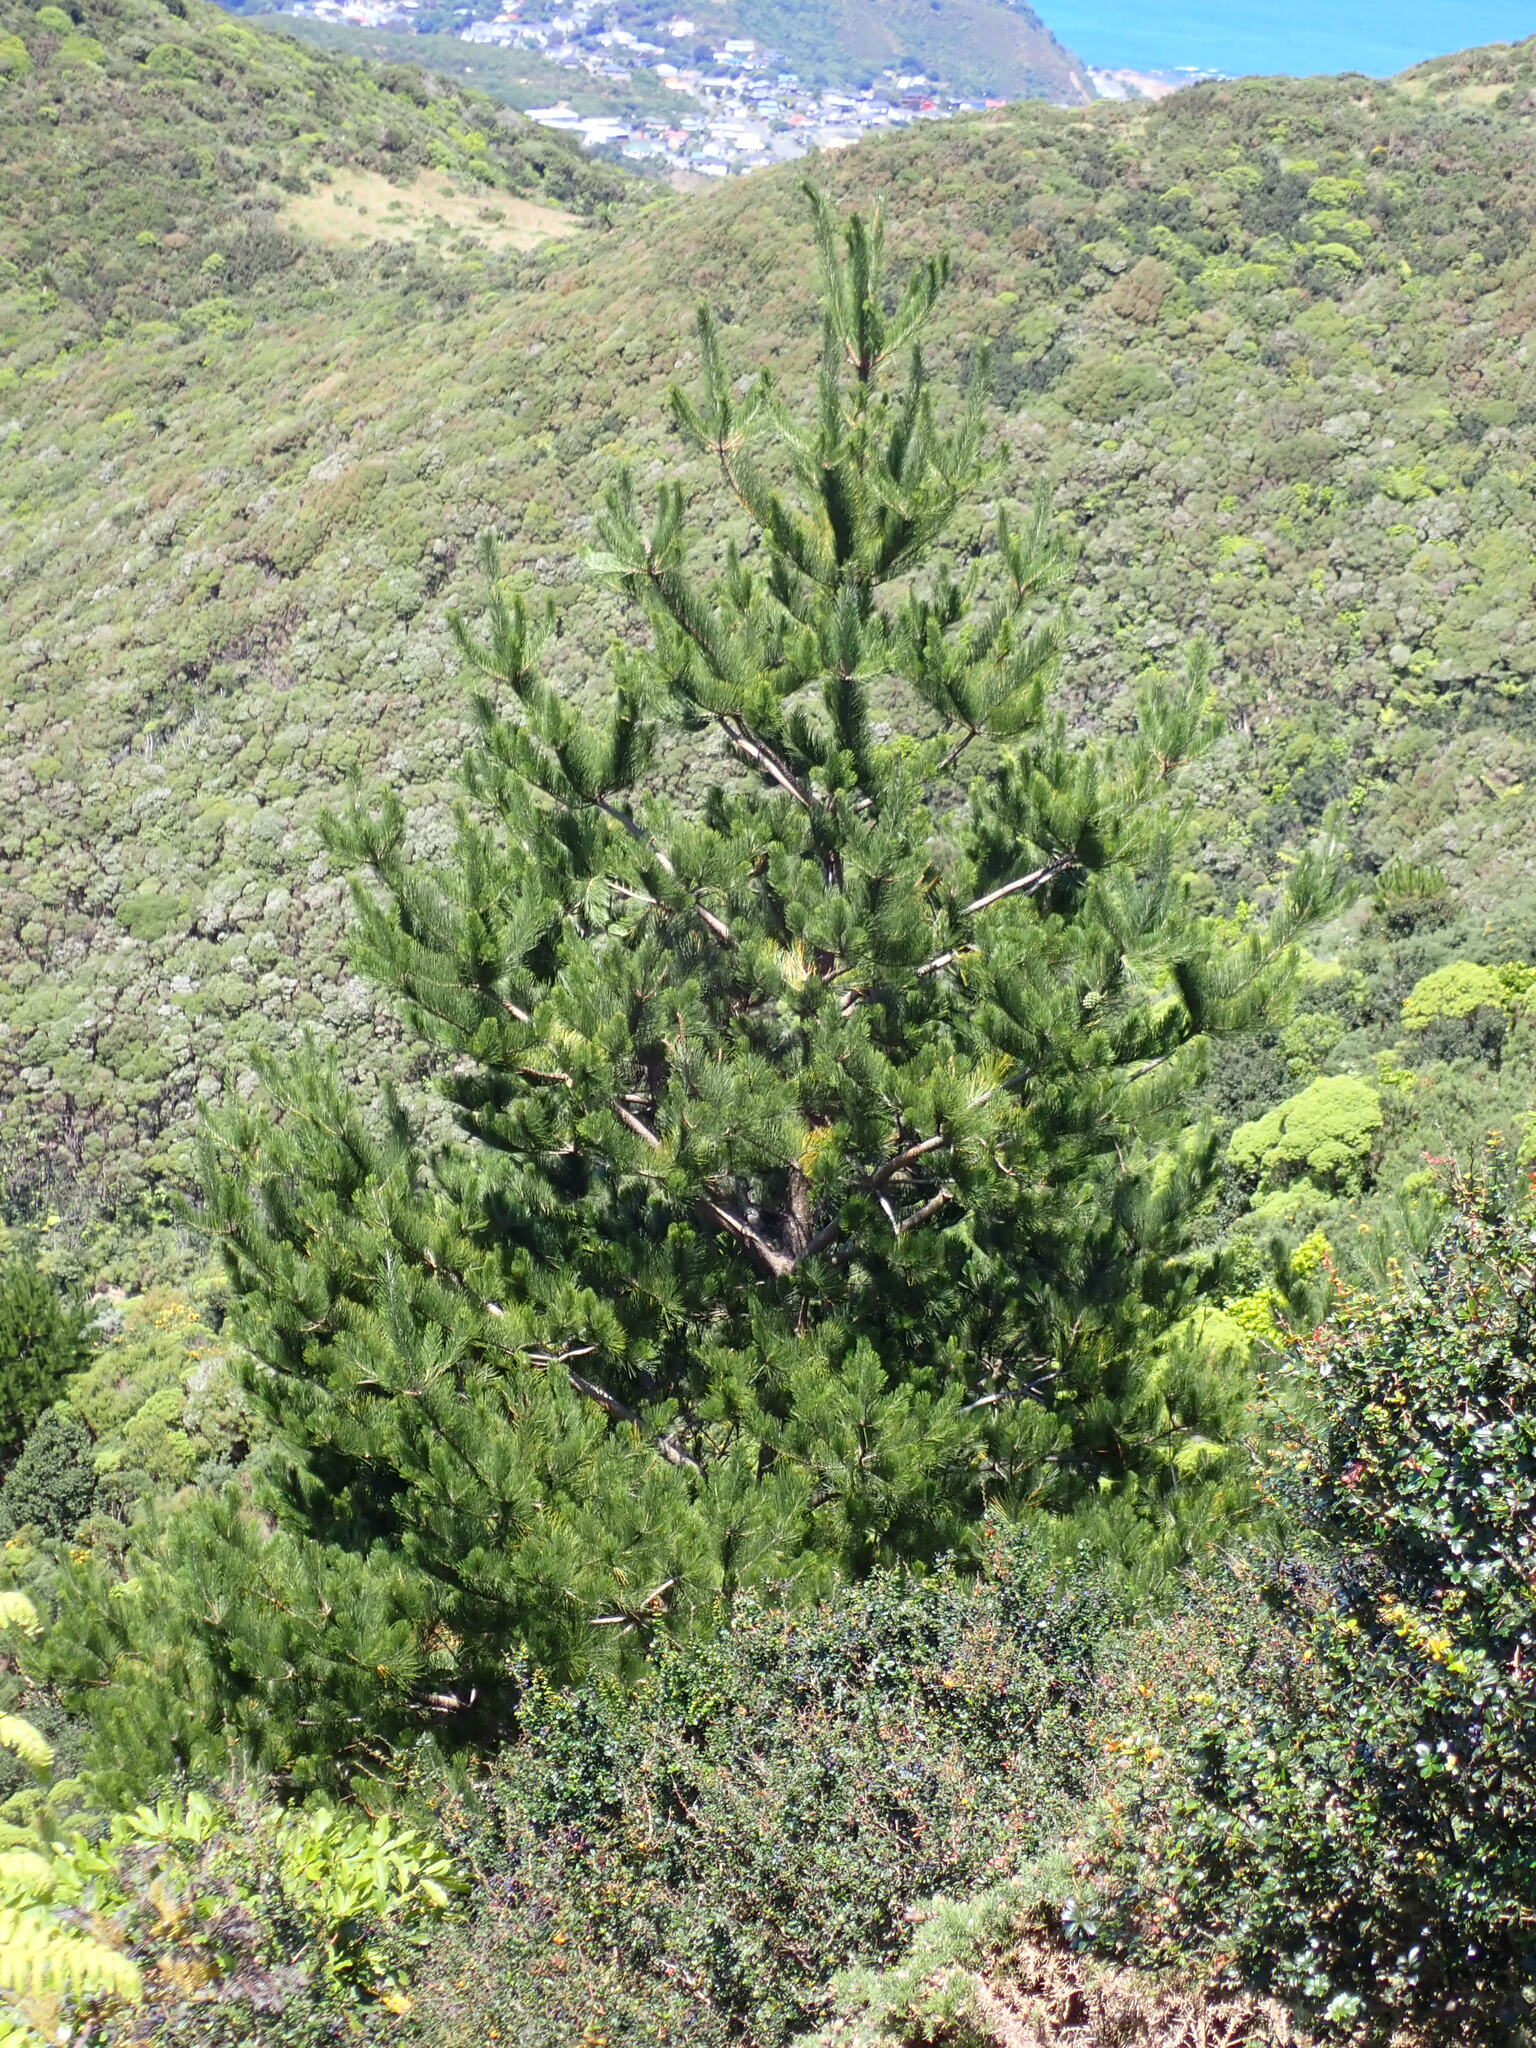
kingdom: Plantae
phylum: Tracheophyta
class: Pinopsida
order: Pinales
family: Pinaceae
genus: Pinus
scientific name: Pinus radiata
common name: Monterey pine
